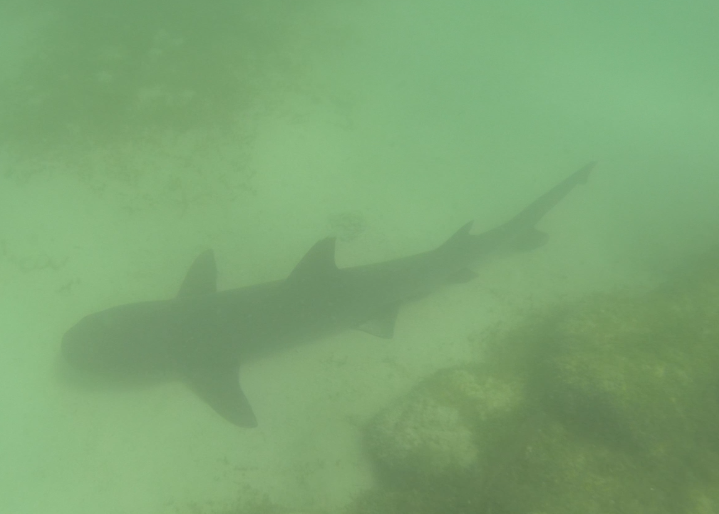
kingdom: Animalia
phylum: Chordata
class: Elasmobranchii
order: Carcharhiniformes
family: Carcharhinidae
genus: Triaenodon
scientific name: Triaenodon obesus
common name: Whitetip reef shark
